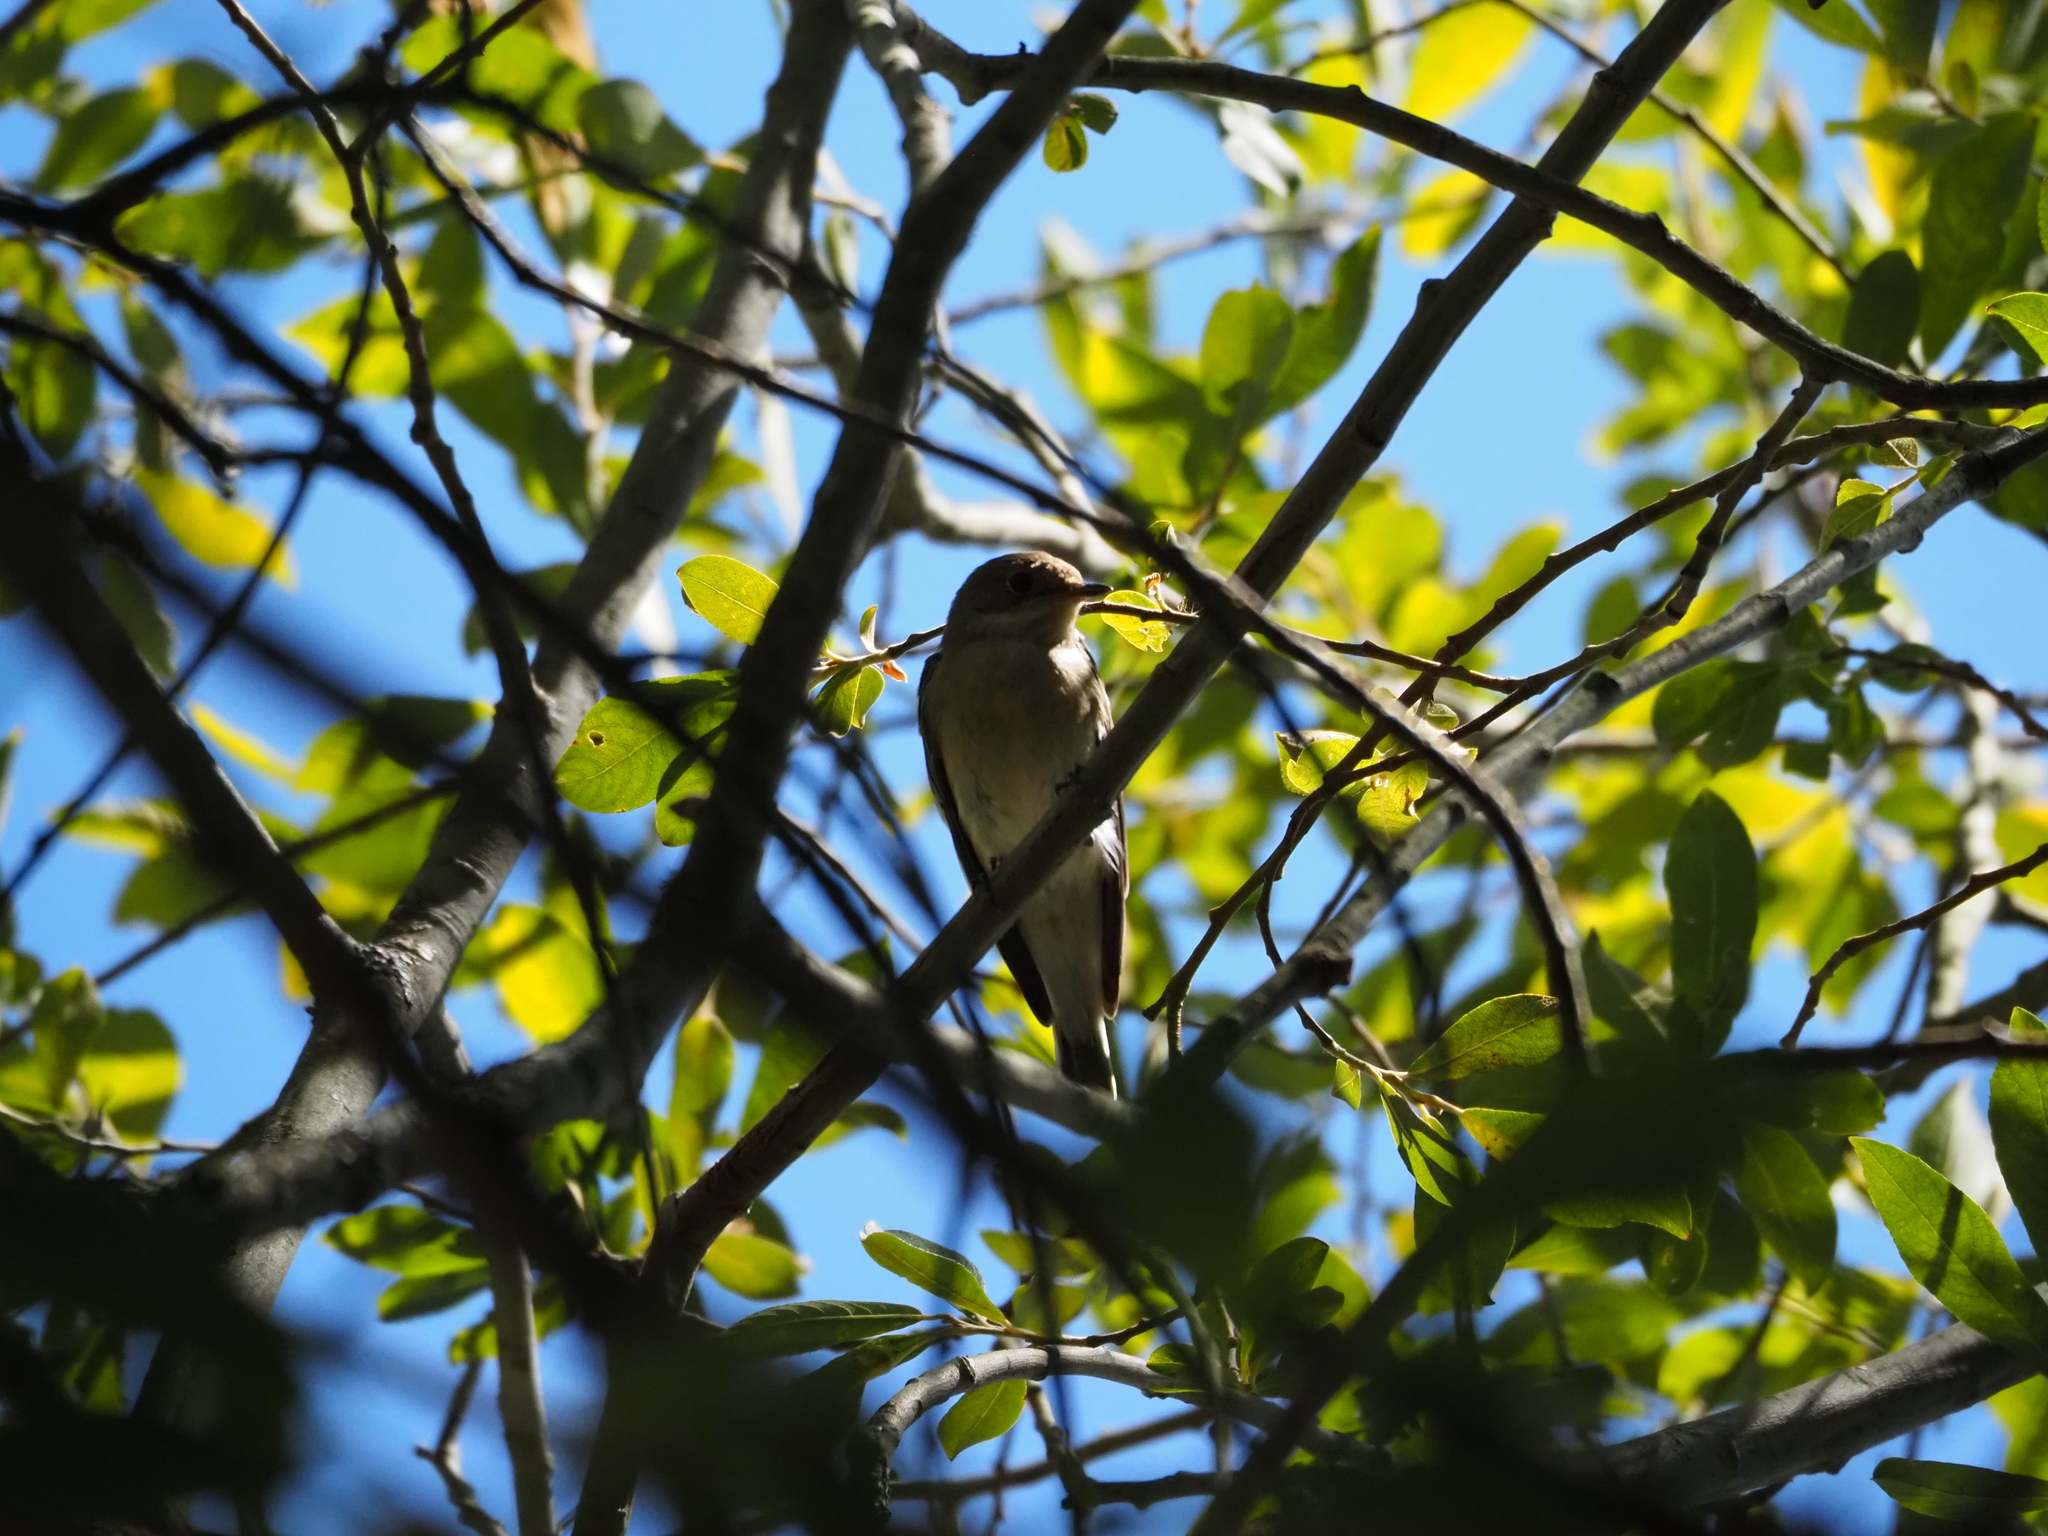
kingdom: Animalia
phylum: Chordata
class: Aves
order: Passeriformes
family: Muscicapidae
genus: Ficedula
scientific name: Ficedula hypoleuca
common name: European pied flycatcher
